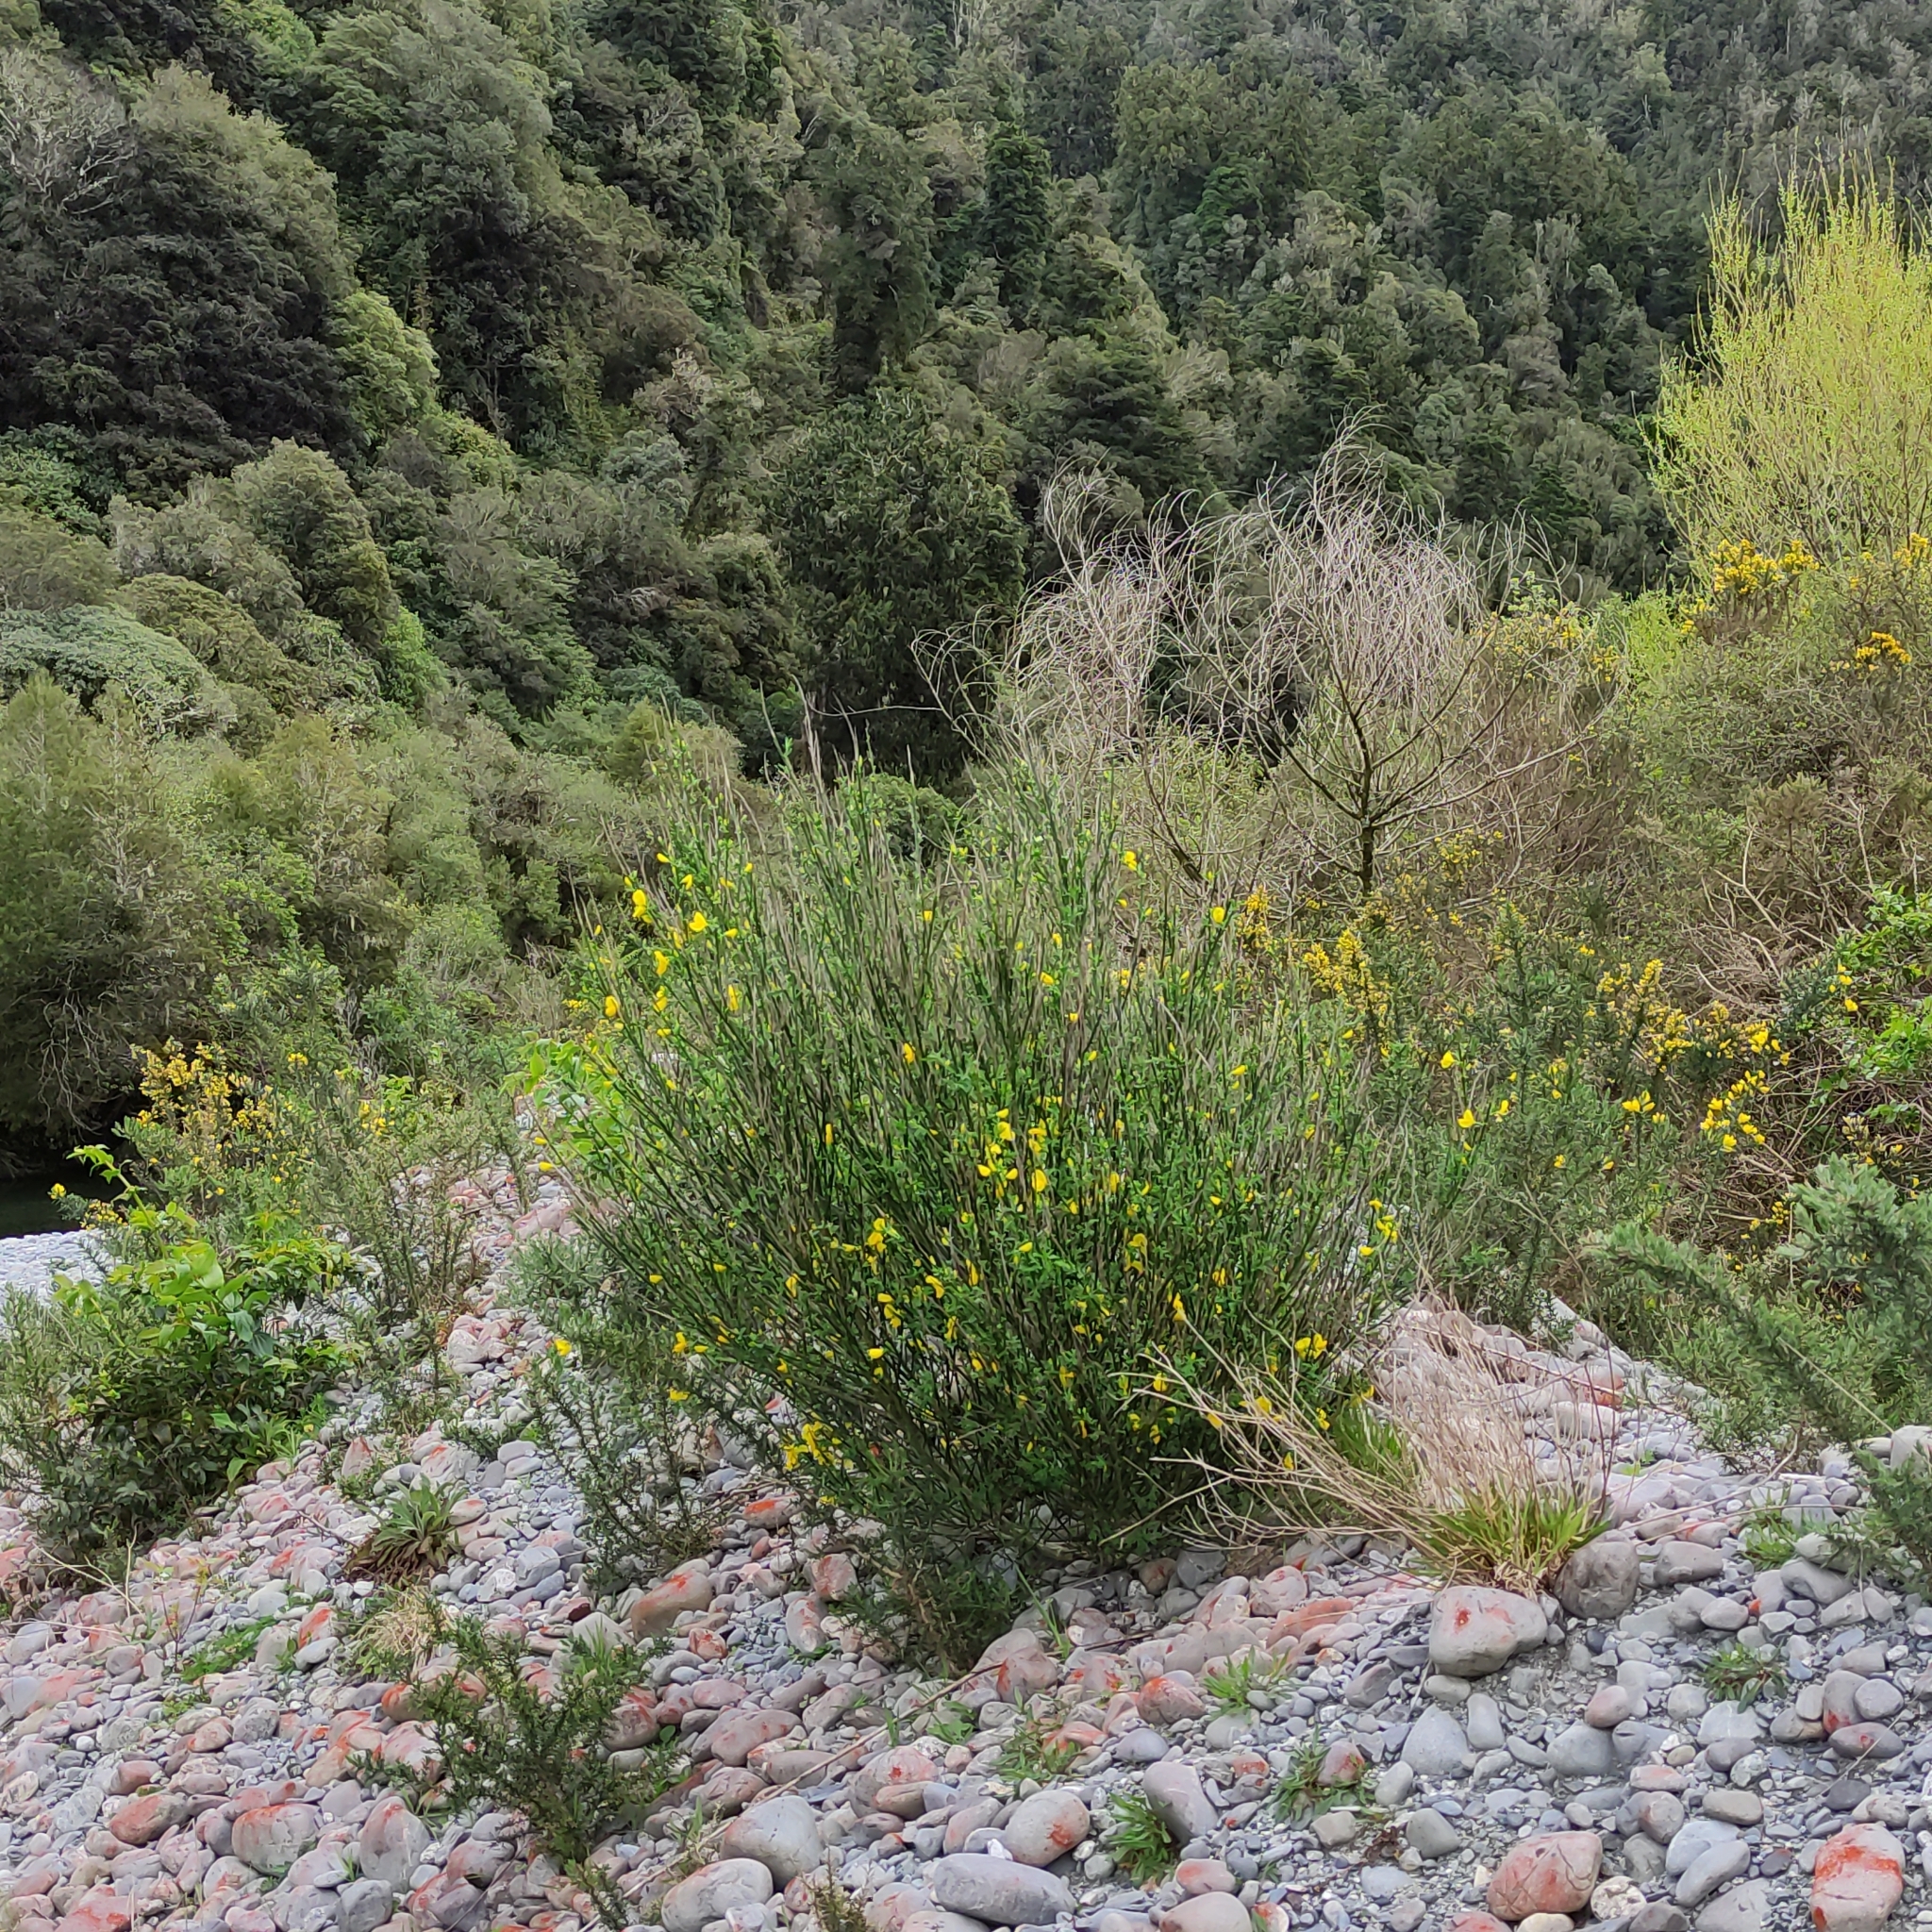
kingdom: Plantae
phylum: Tracheophyta
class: Magnoliopsida
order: Fabales
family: Fabaceae
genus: Cytisus
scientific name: Cytisus scoparius
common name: Scotch broom
